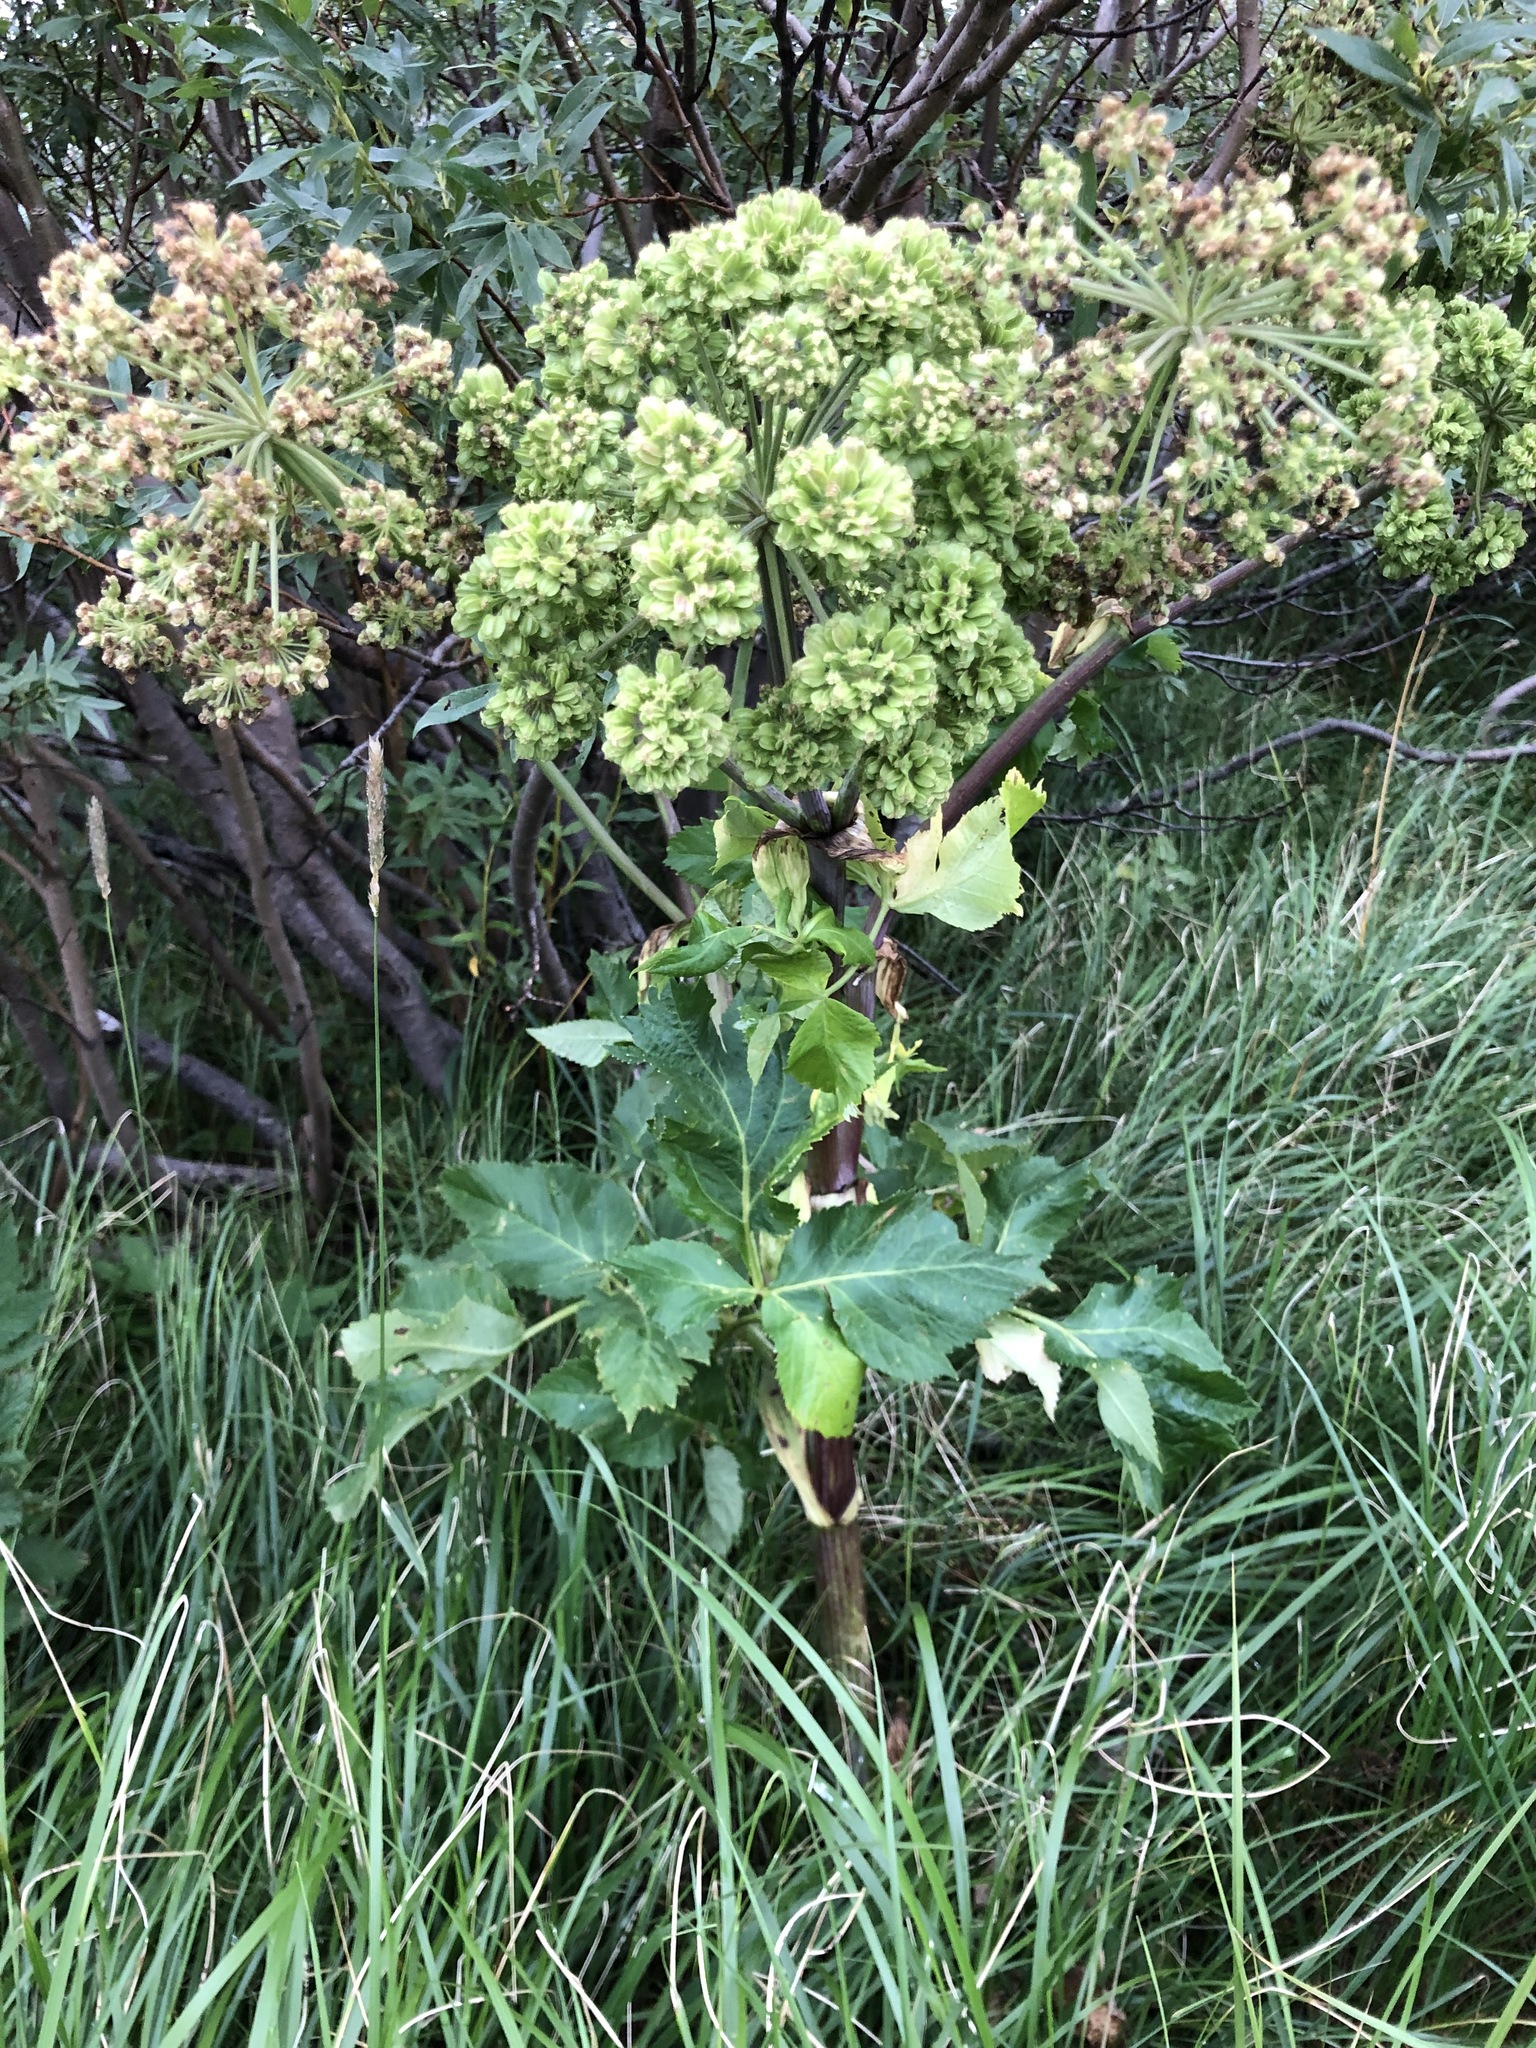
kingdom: Plantae
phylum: Tracheophyta
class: Magnoliopsida
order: Apiales
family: Apiaceae
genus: Angelica
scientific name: Angelica decurrens
